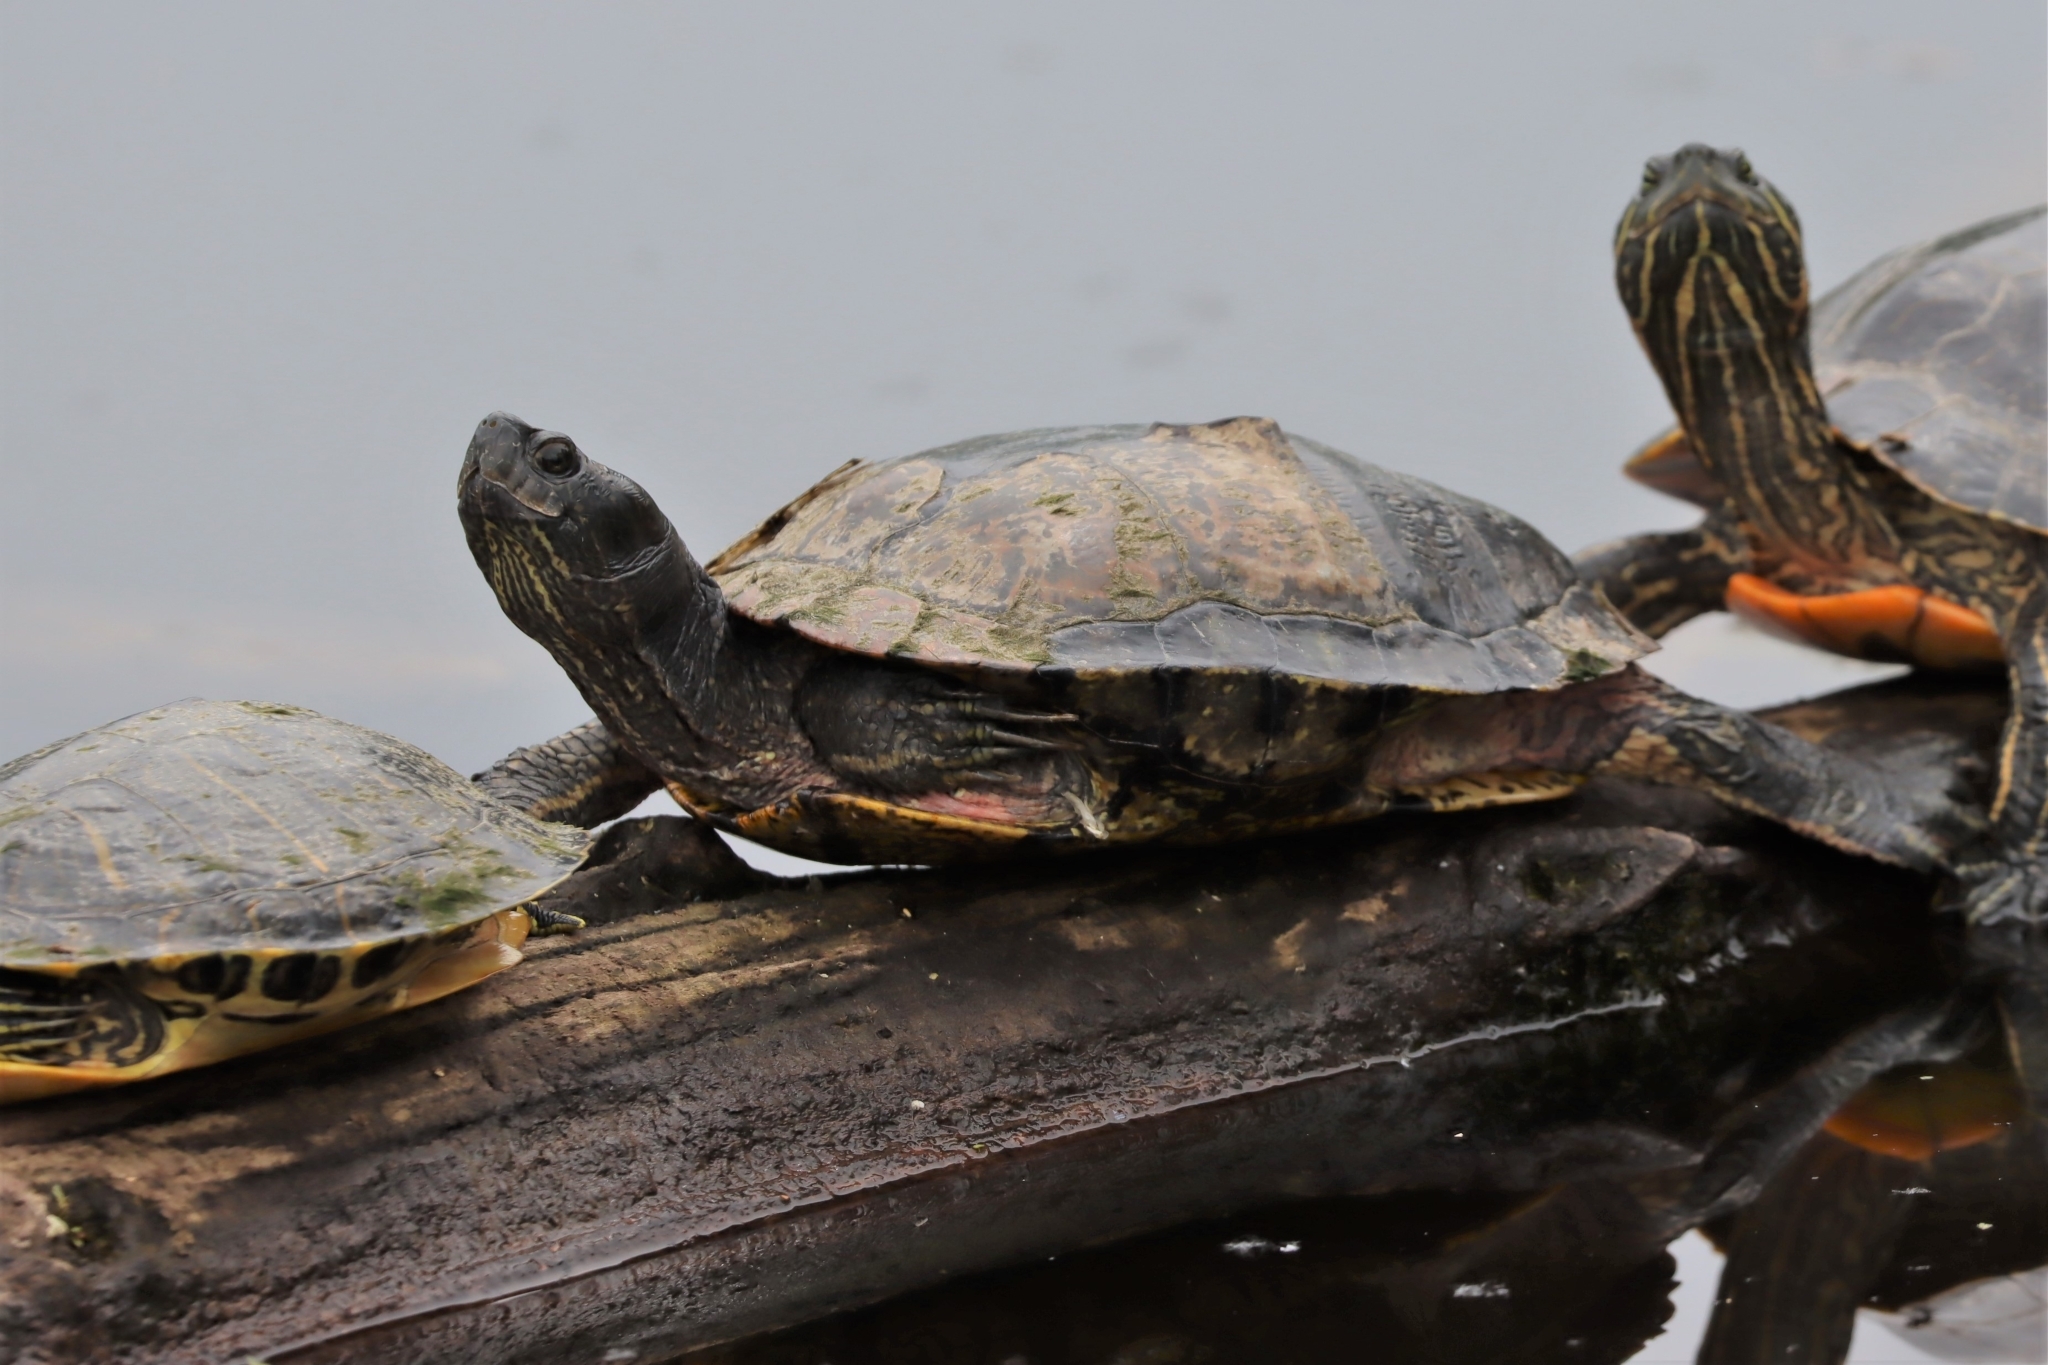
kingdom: Animalia
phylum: Chordata
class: Testudines
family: Emydidae
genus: Trachemys
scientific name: Trachemys scripta
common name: Slider
